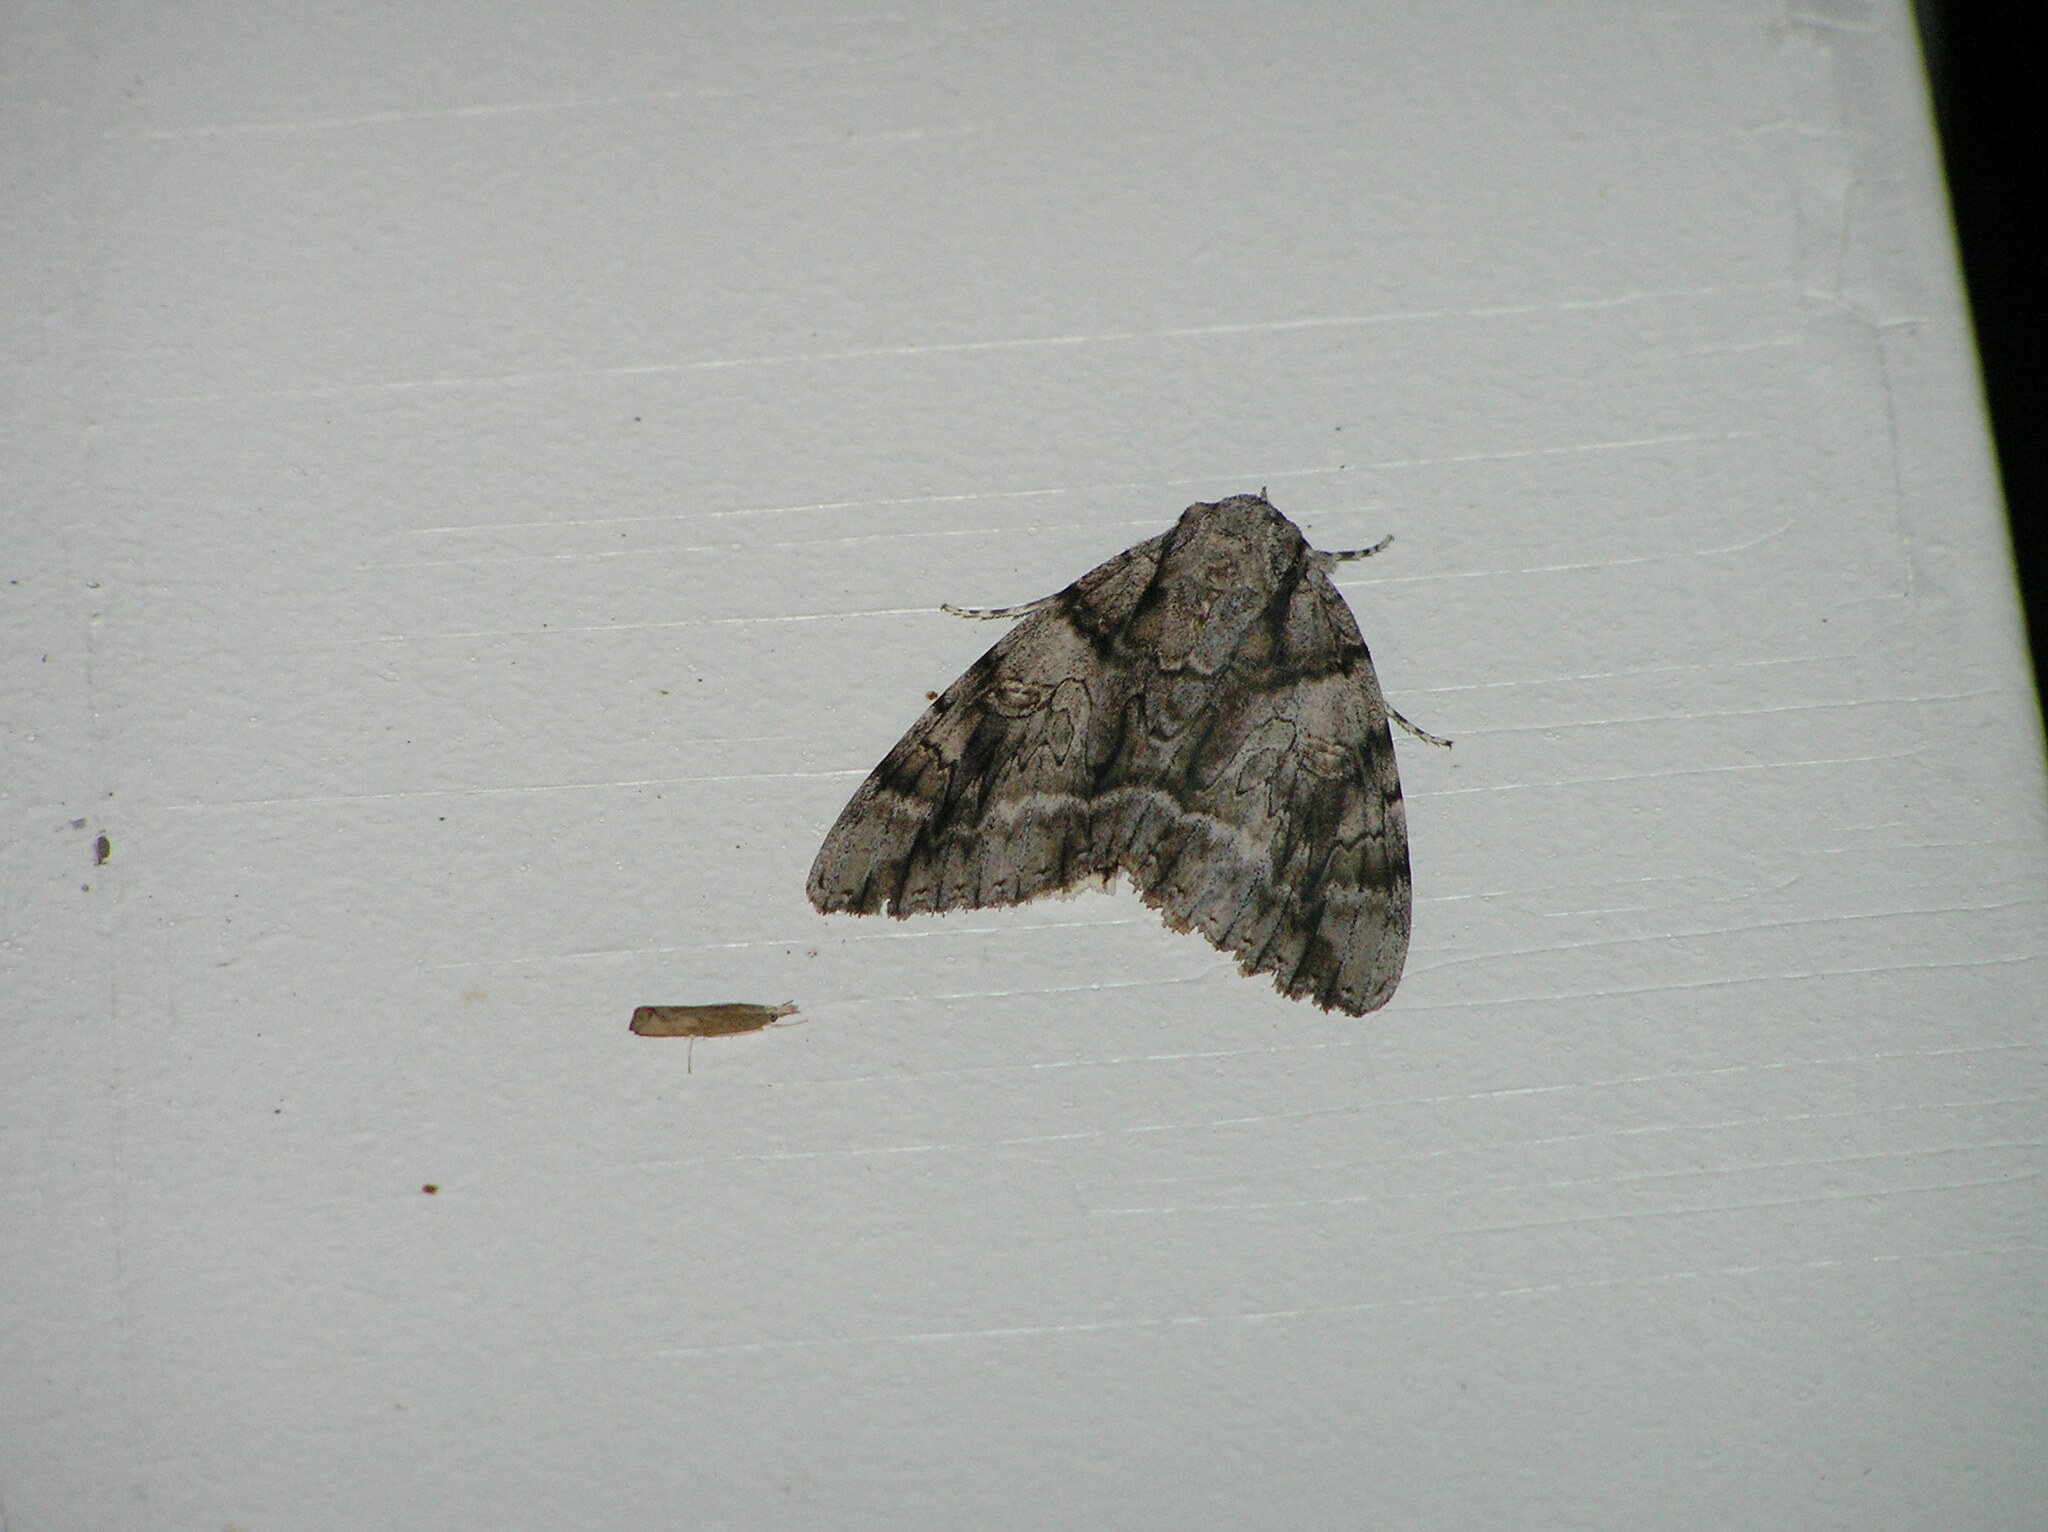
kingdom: Animalia
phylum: Arthropoda
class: Insecta
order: Lepidoptera
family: Erebidae
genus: Catocala
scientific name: Catocala vidua
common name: The widow
